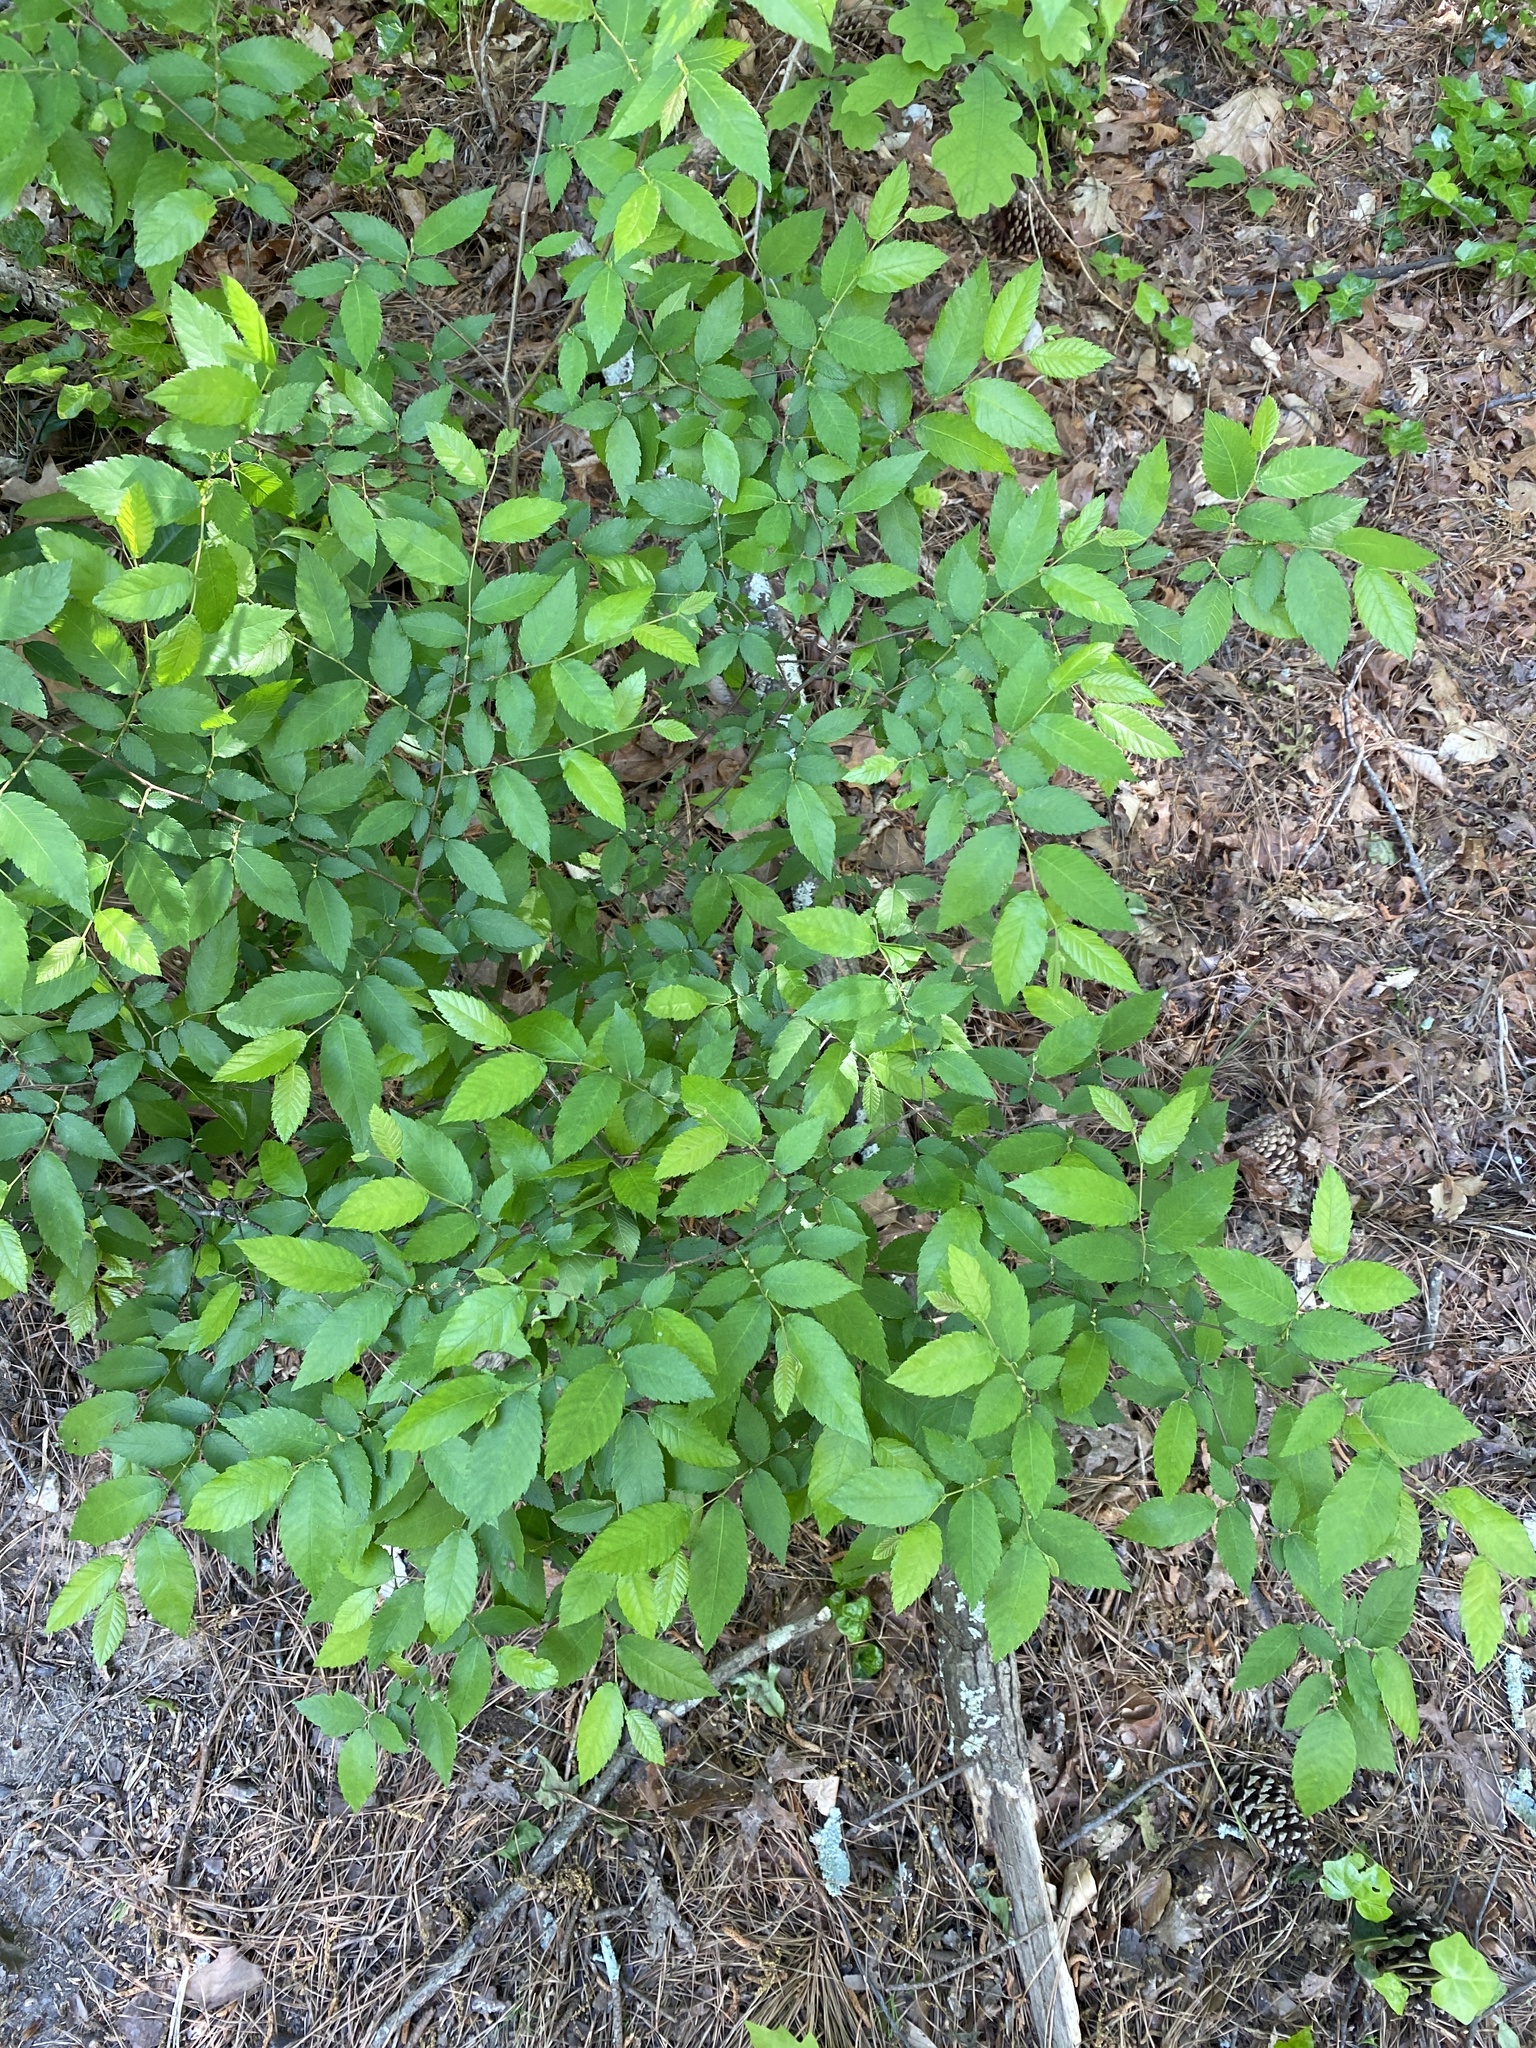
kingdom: Plantae
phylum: Tracheophyta
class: Magnoliopsida
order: Rosales
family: Ulmaceae
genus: Ulmus
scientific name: Ulmus alata
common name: Winged elm
